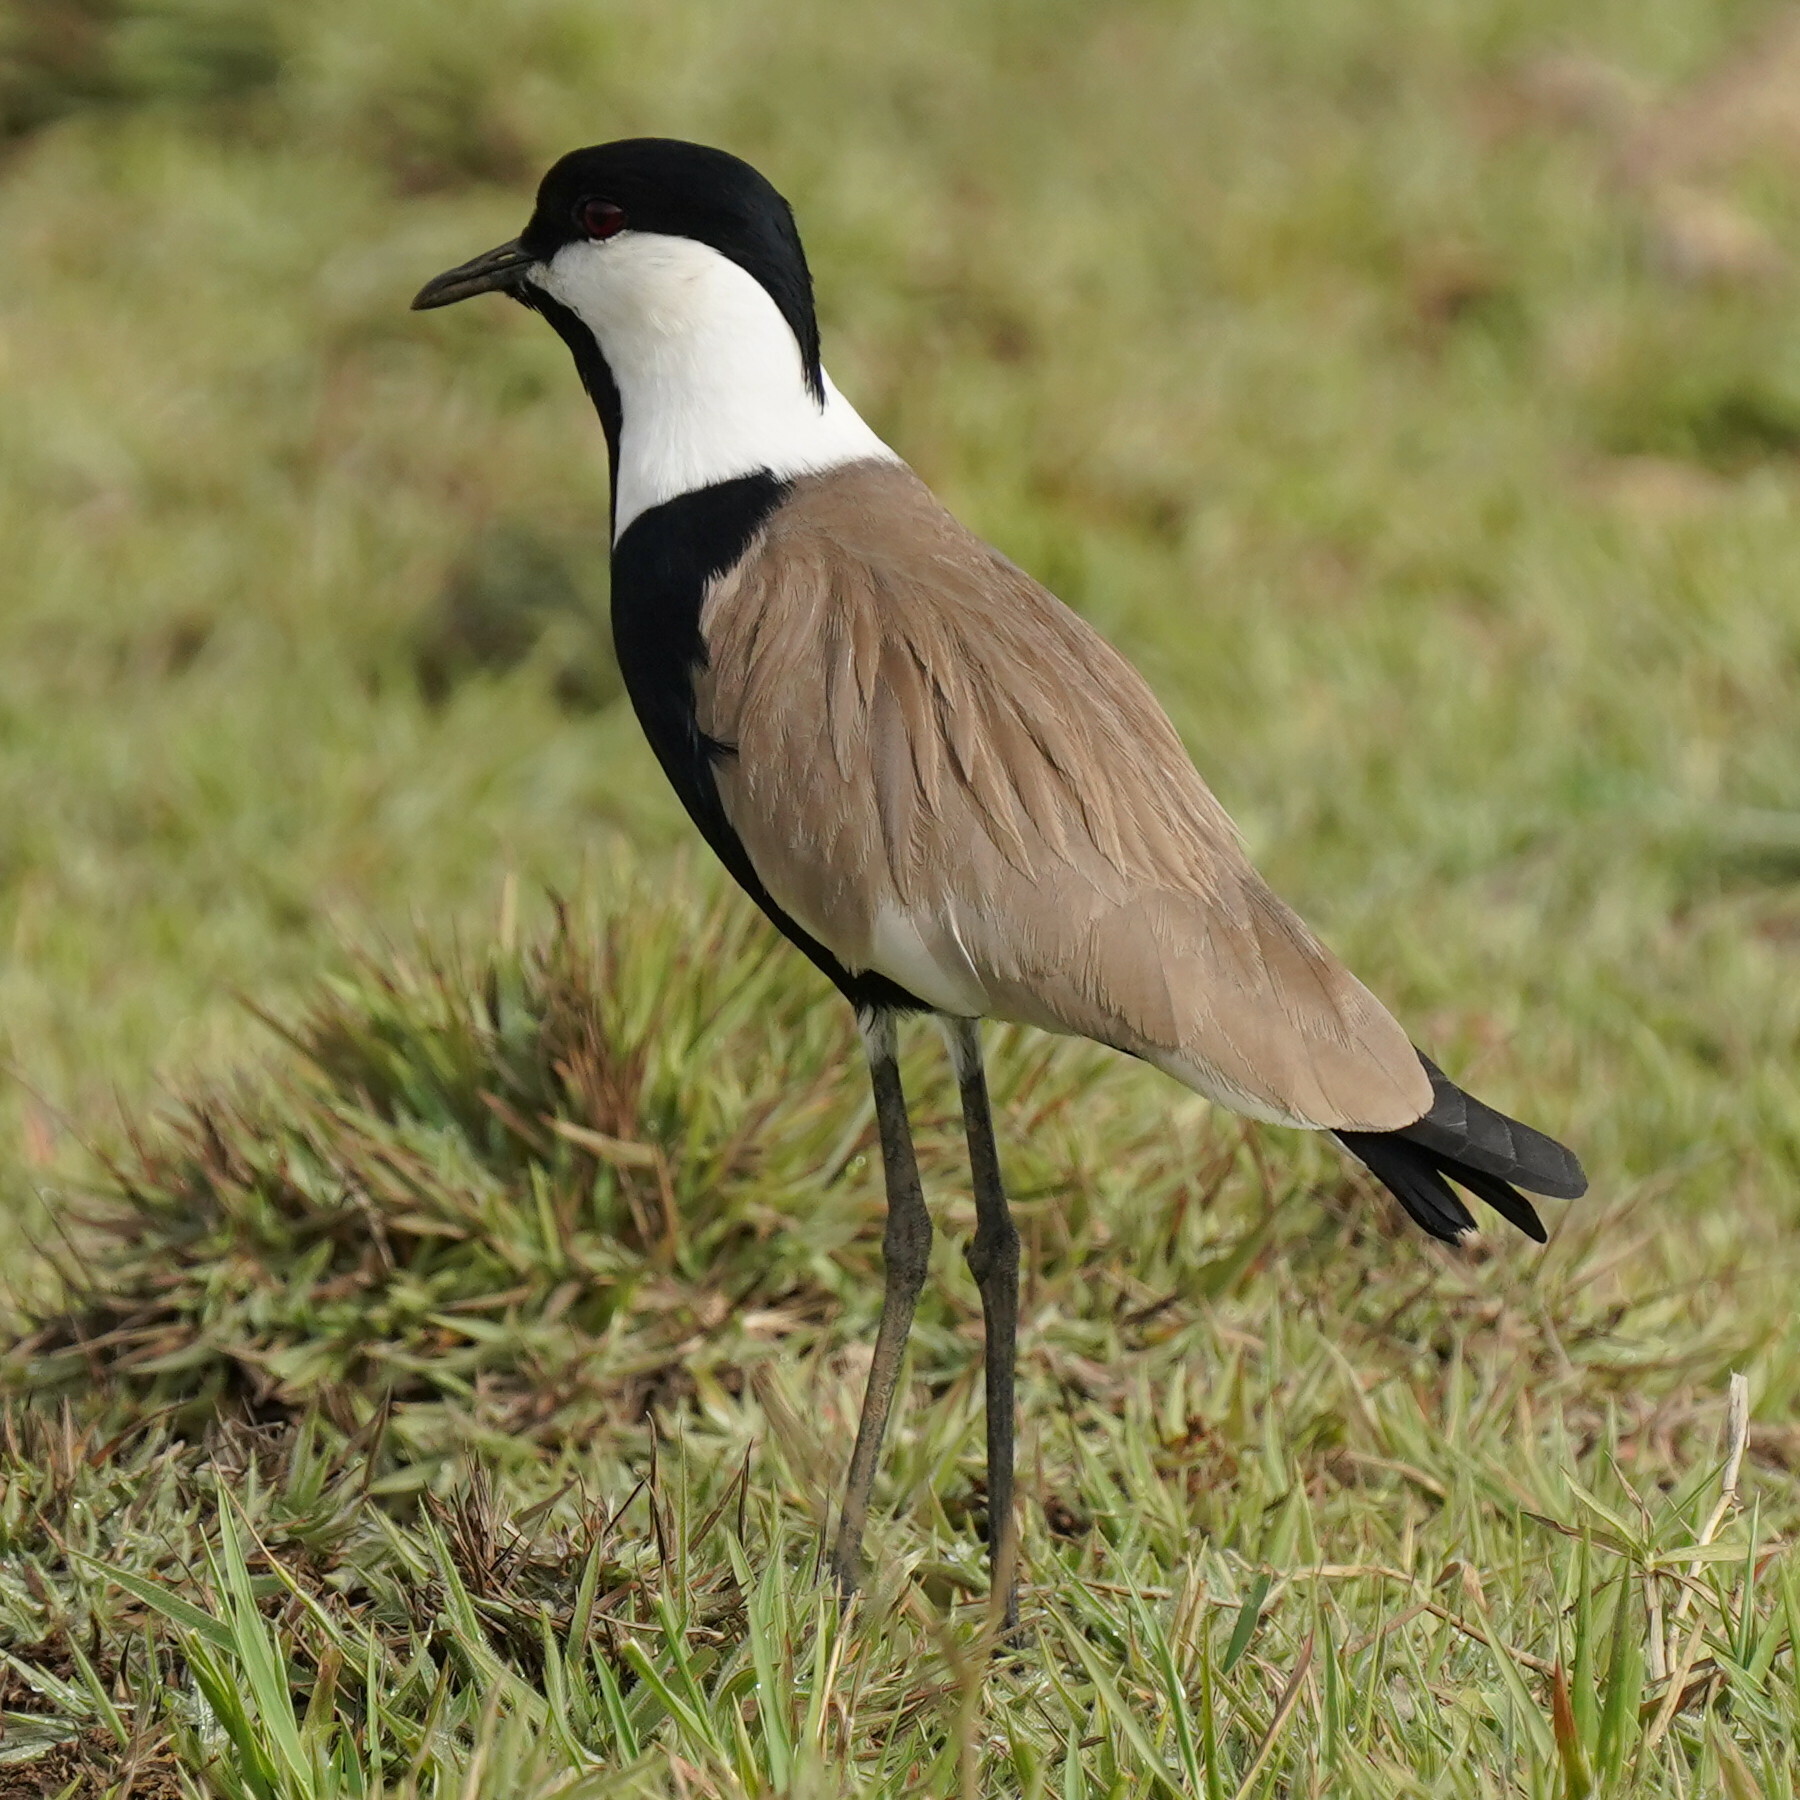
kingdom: Animalia
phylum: Chordata
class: Aves
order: Charadriiformes
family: Charadriidae
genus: Vanellus
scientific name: Vanellus spinosus
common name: Spur-winged lapwing
